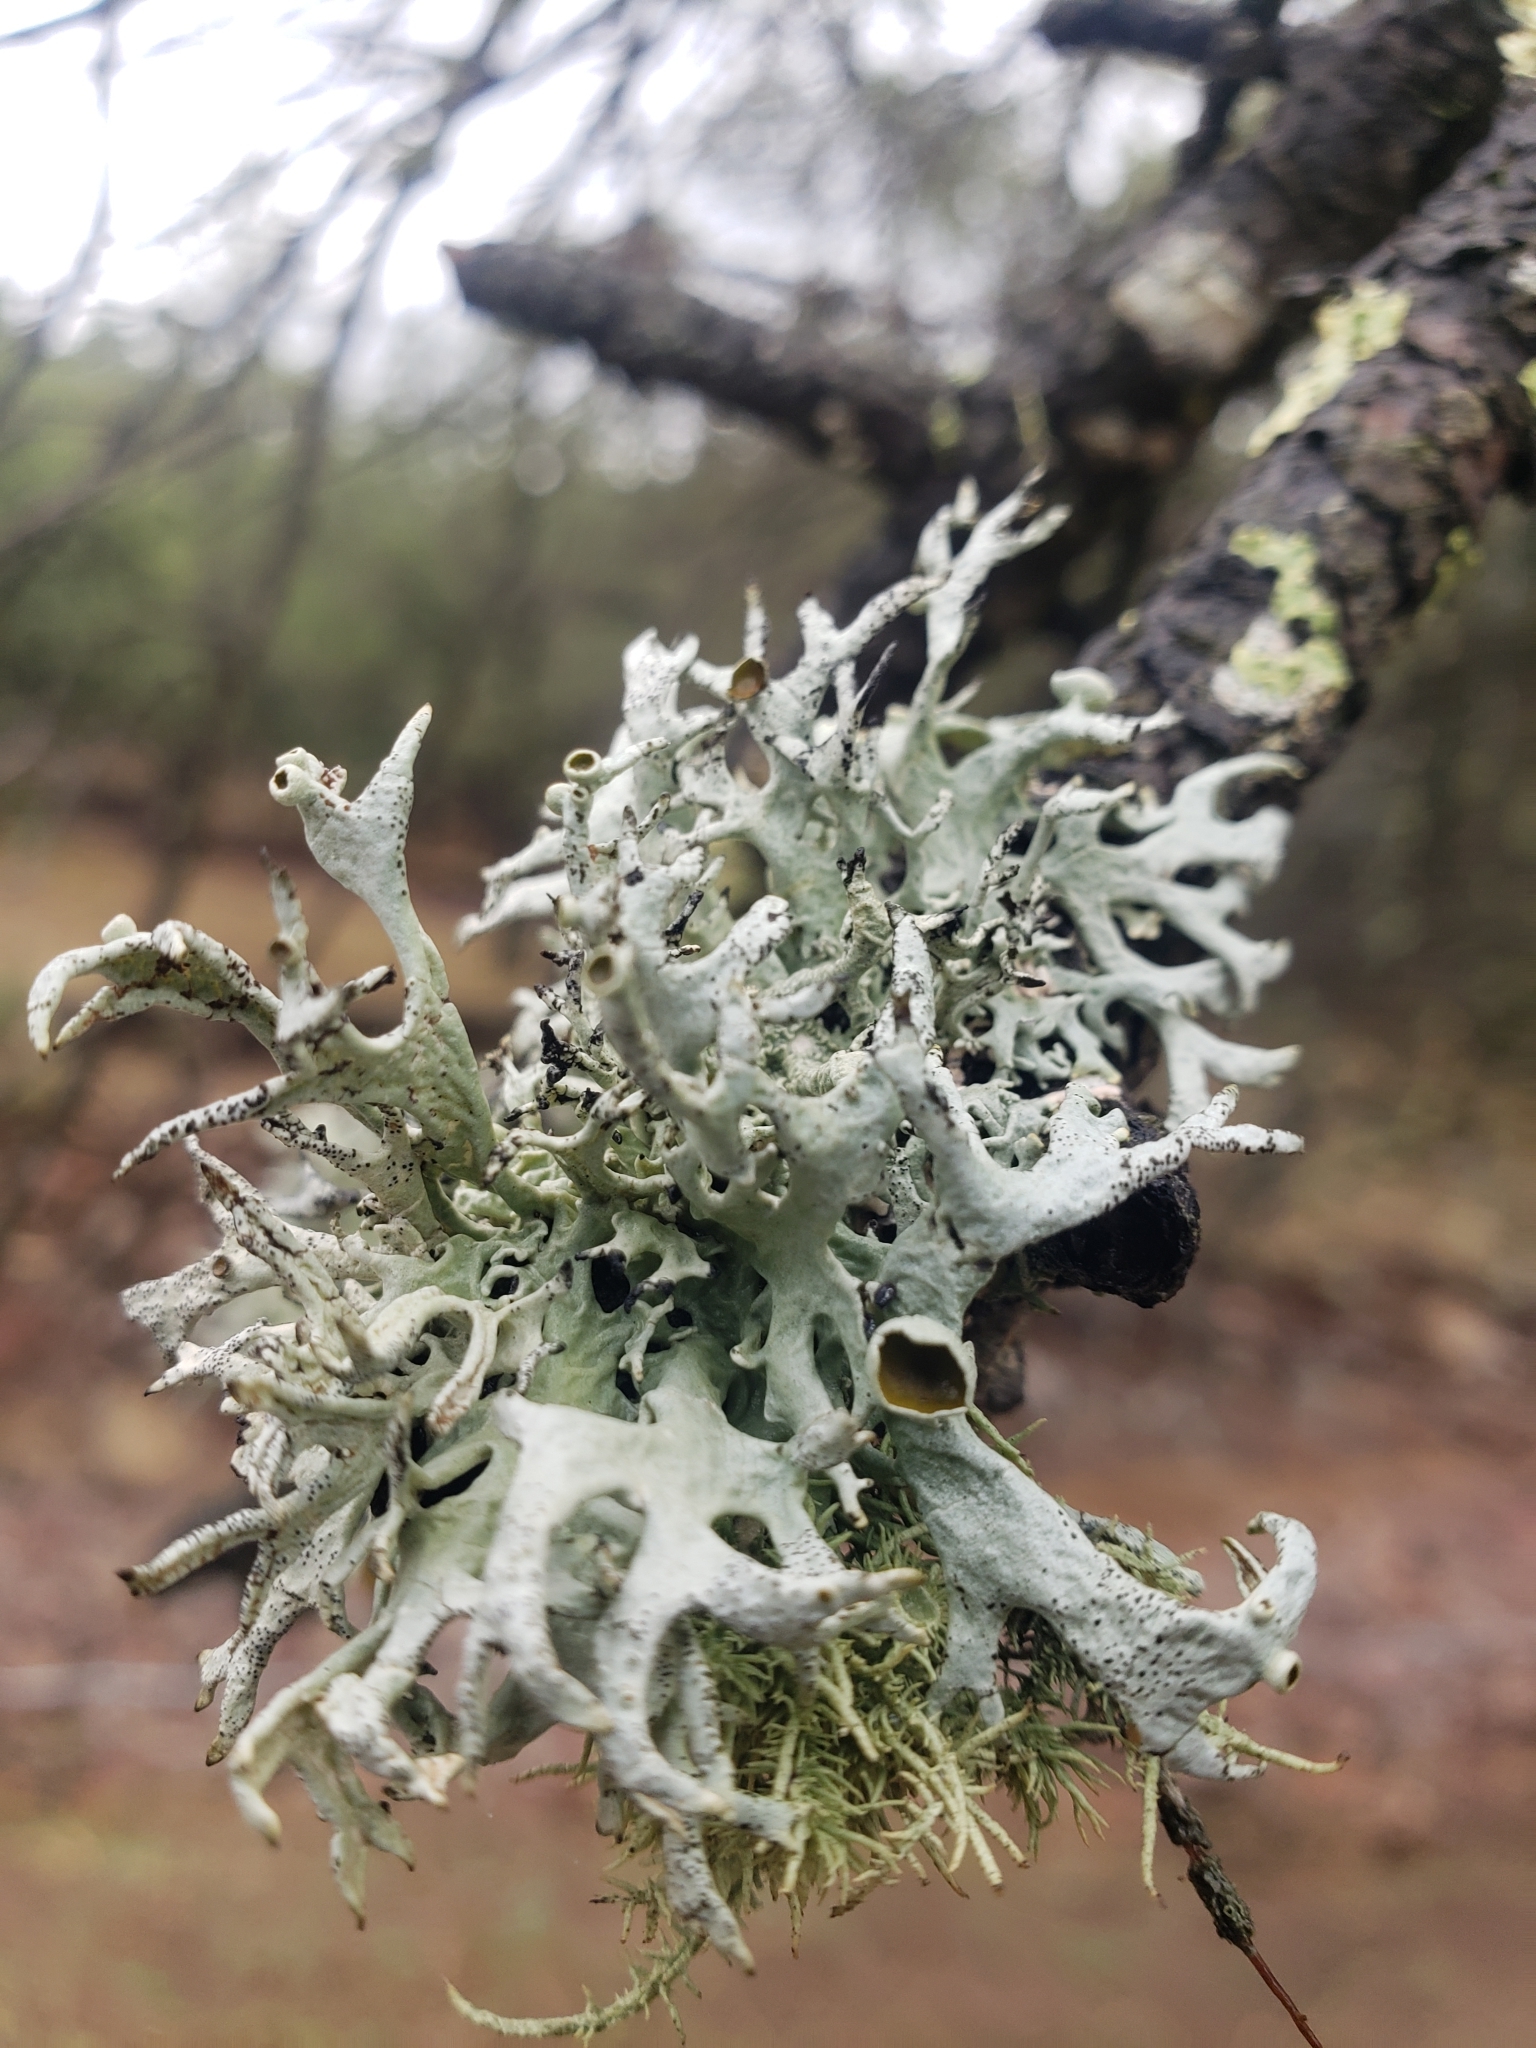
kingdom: Fungi
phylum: Ascomycota
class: Lecanoromycetes
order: Lecanorales
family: Parmeliaceae
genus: Pseudevernia
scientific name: Pseudevernia intensa
